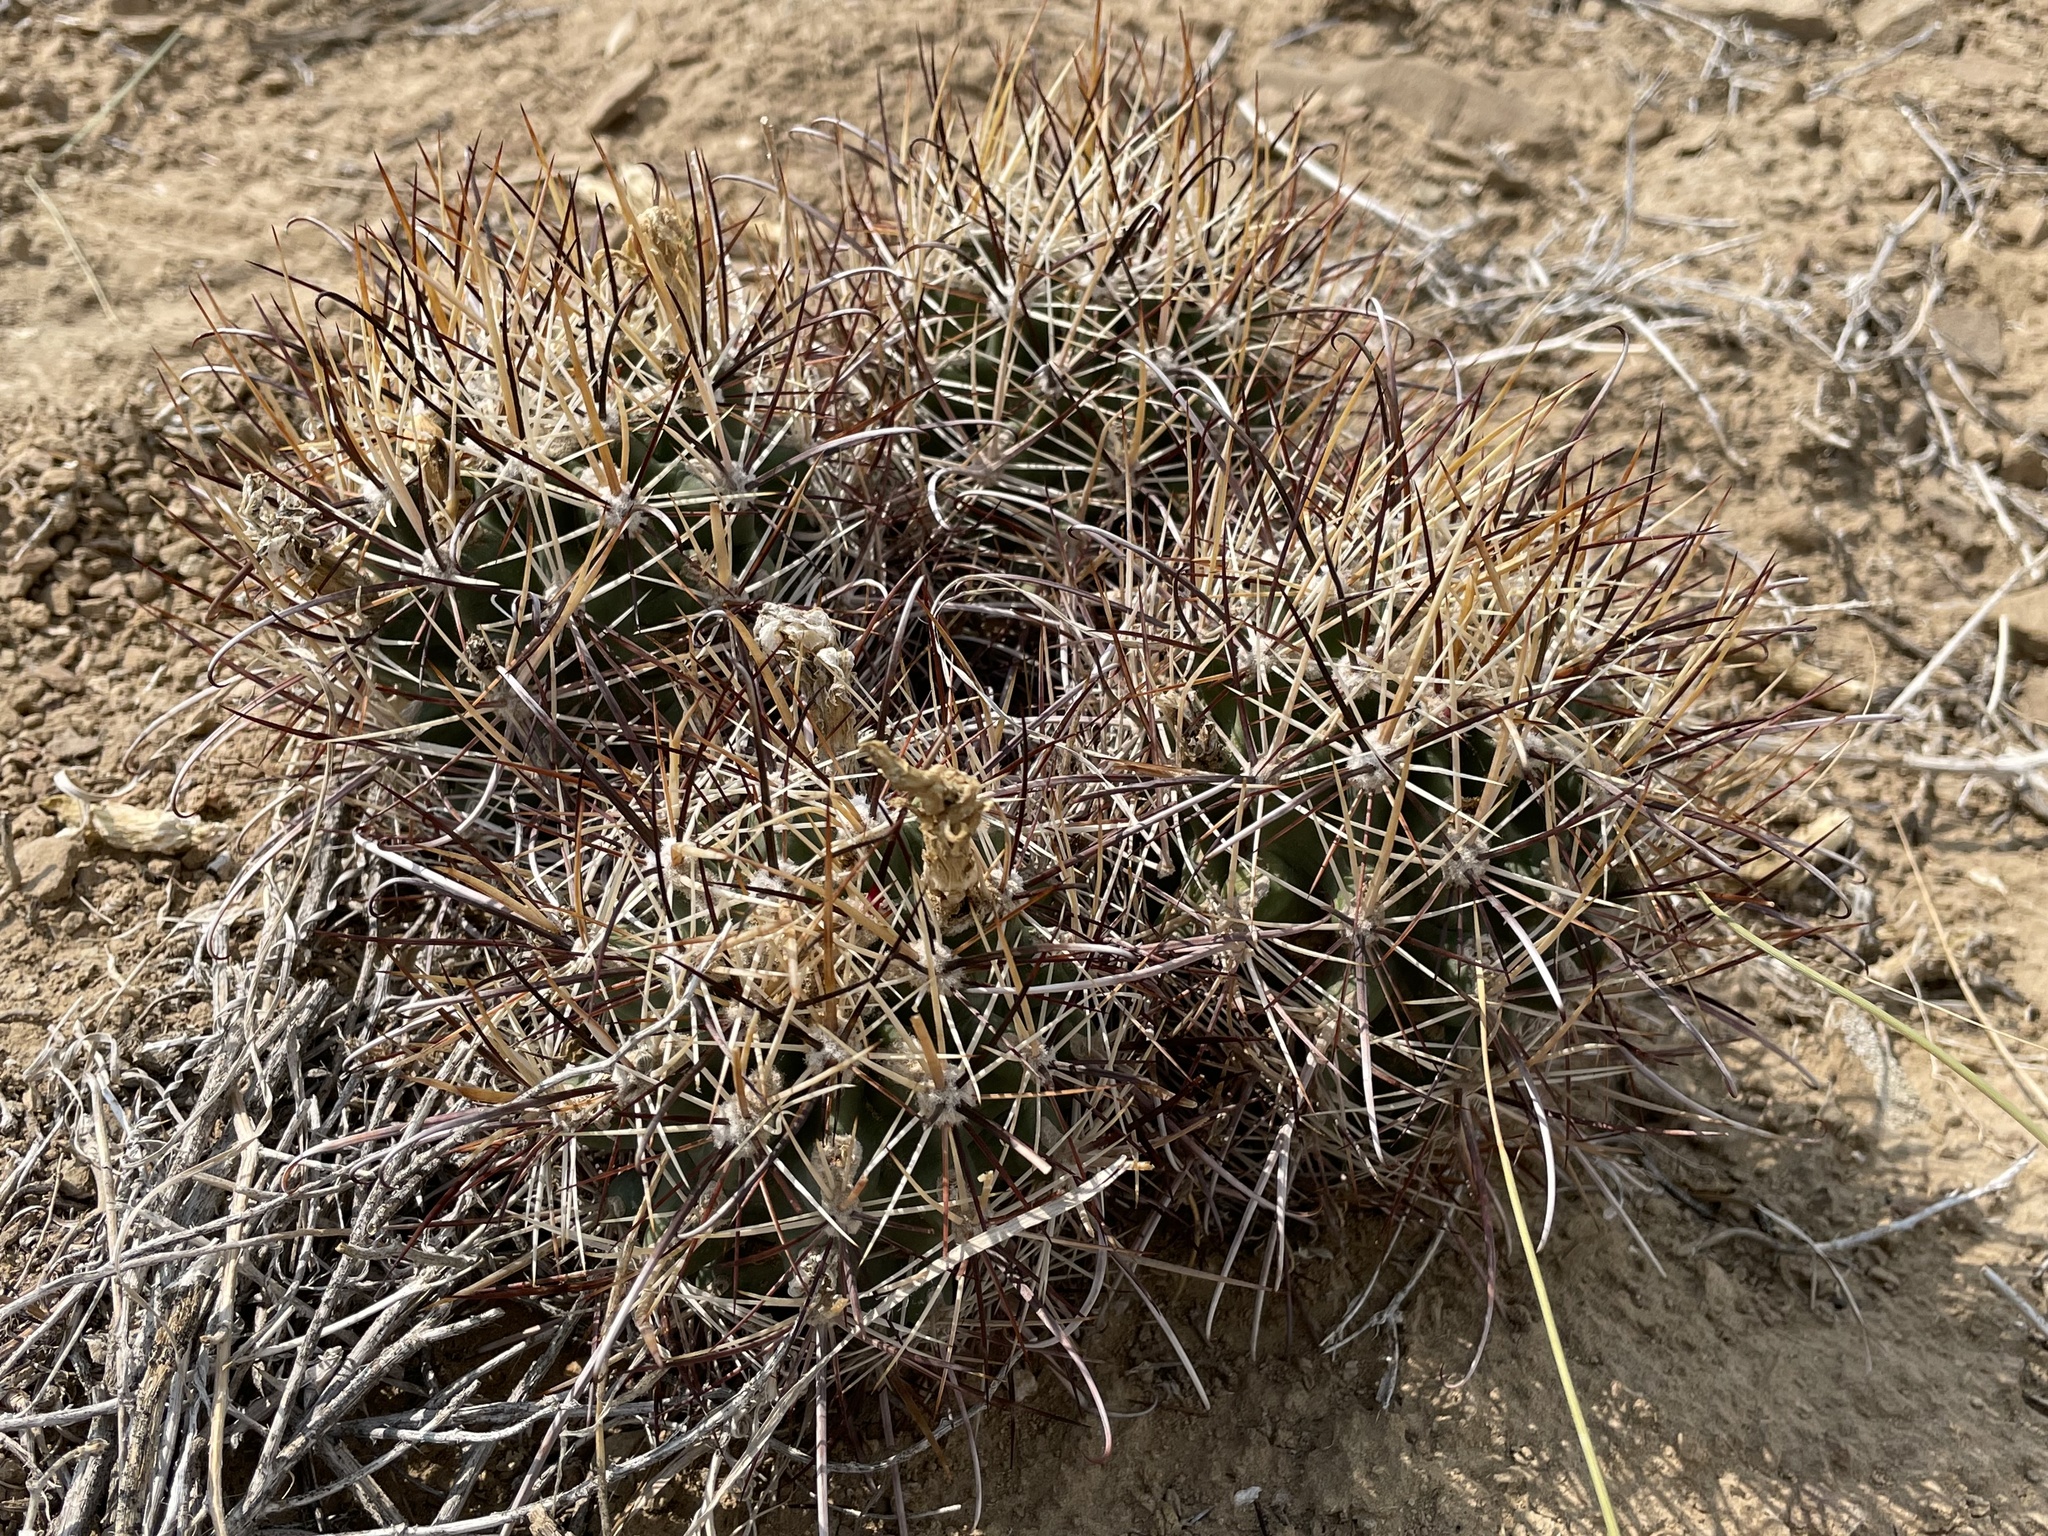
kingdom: Plantae
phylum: Tracheophyta
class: Magnoliopsida
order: Caryophyllales
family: Cactaceae
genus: Sclerocactus
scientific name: Sclerocactus parviflorus
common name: Small-flower fishhook cactus
